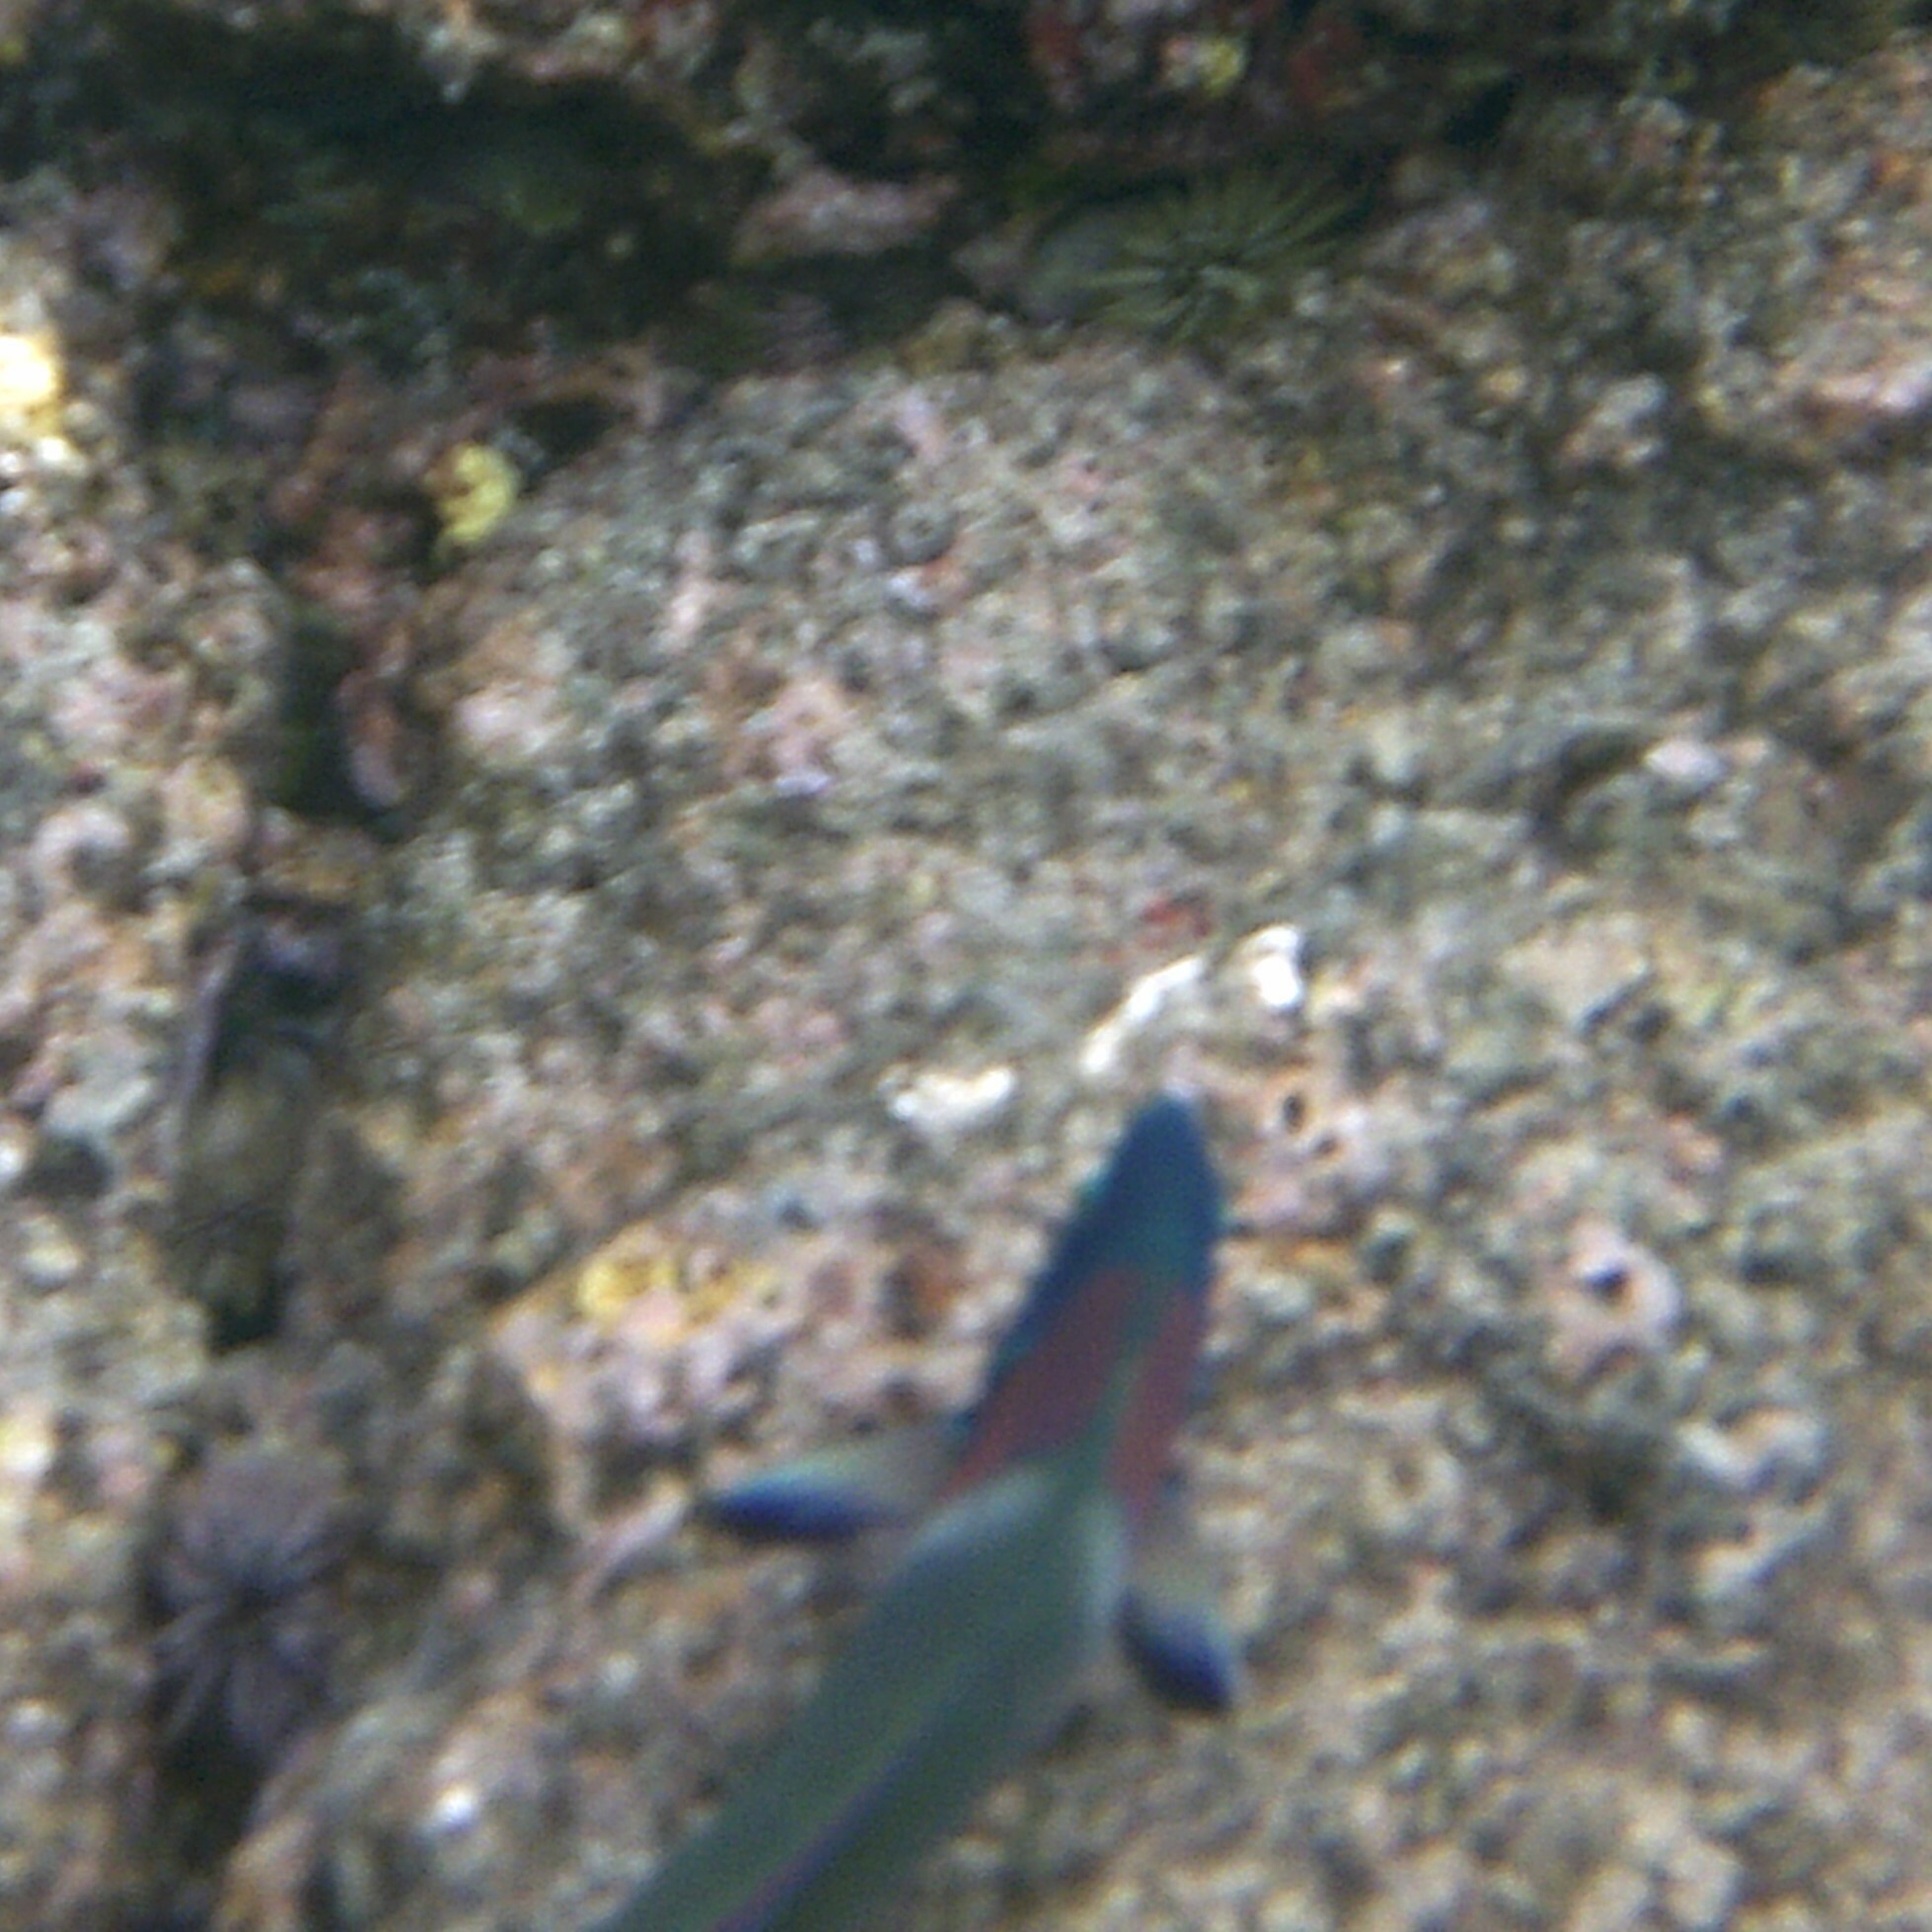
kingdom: Animalia
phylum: Chordata
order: Perciformes
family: Labridae
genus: Thalassoma
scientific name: Thalassoma duperrey
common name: Saddle wrasse
